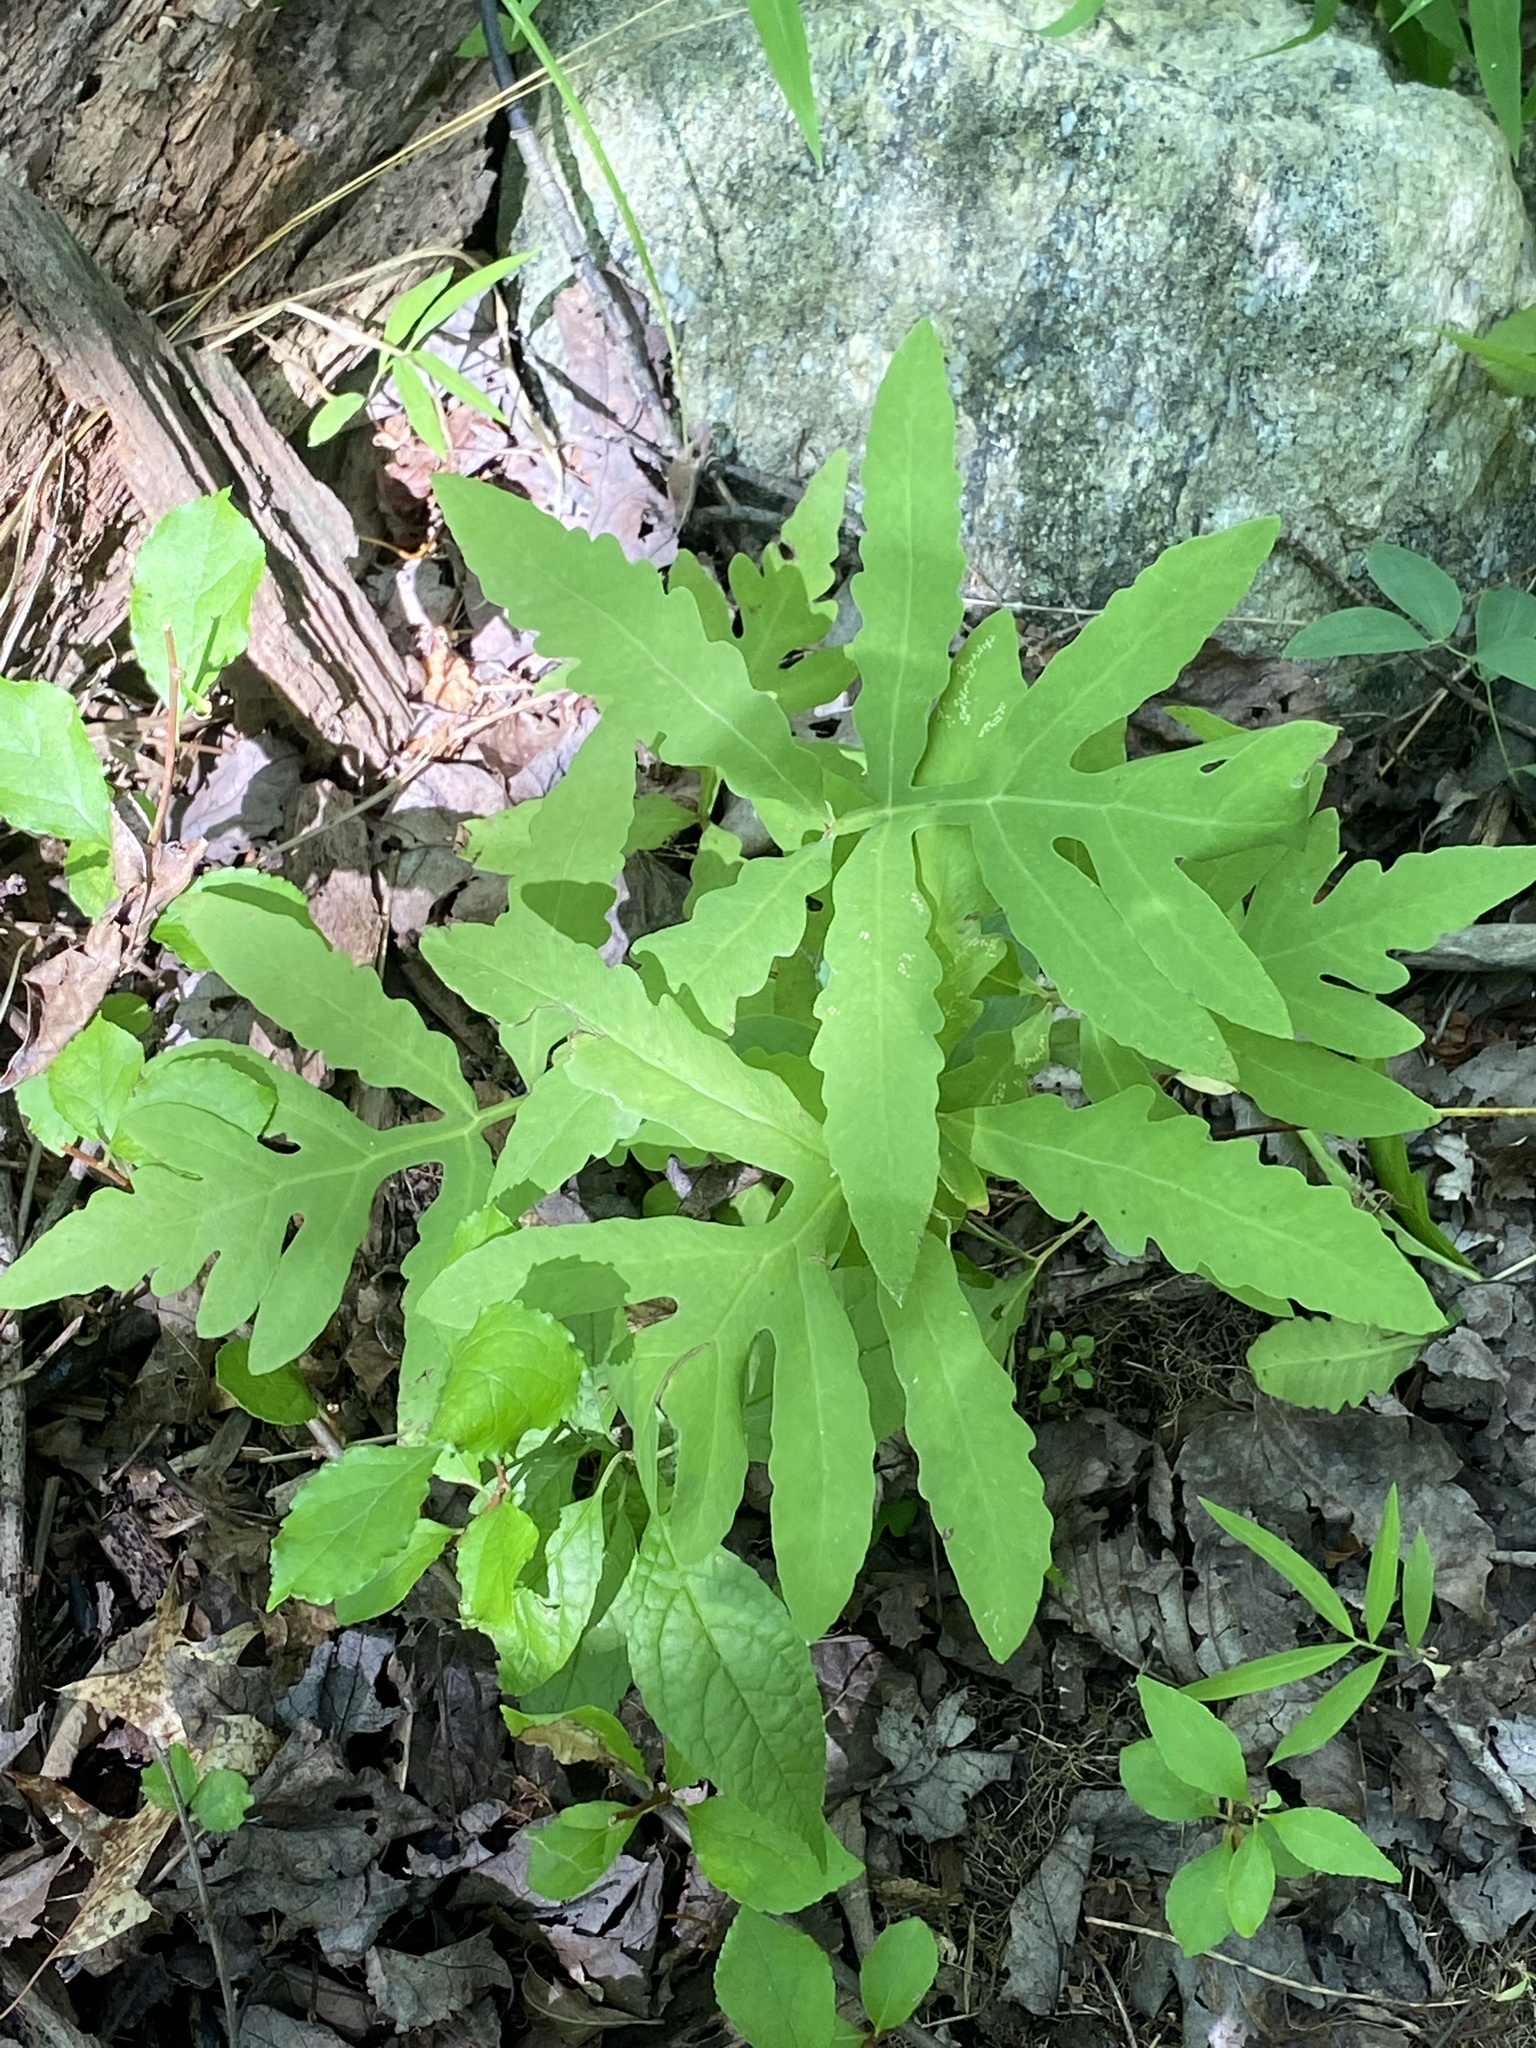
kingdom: Plantae
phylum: Tracheophyta
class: Polypodiopsida
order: Polypodiales
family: Onocleaceae
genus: Onoclea
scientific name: Onoclea sensibilis
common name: Sensitive fern
